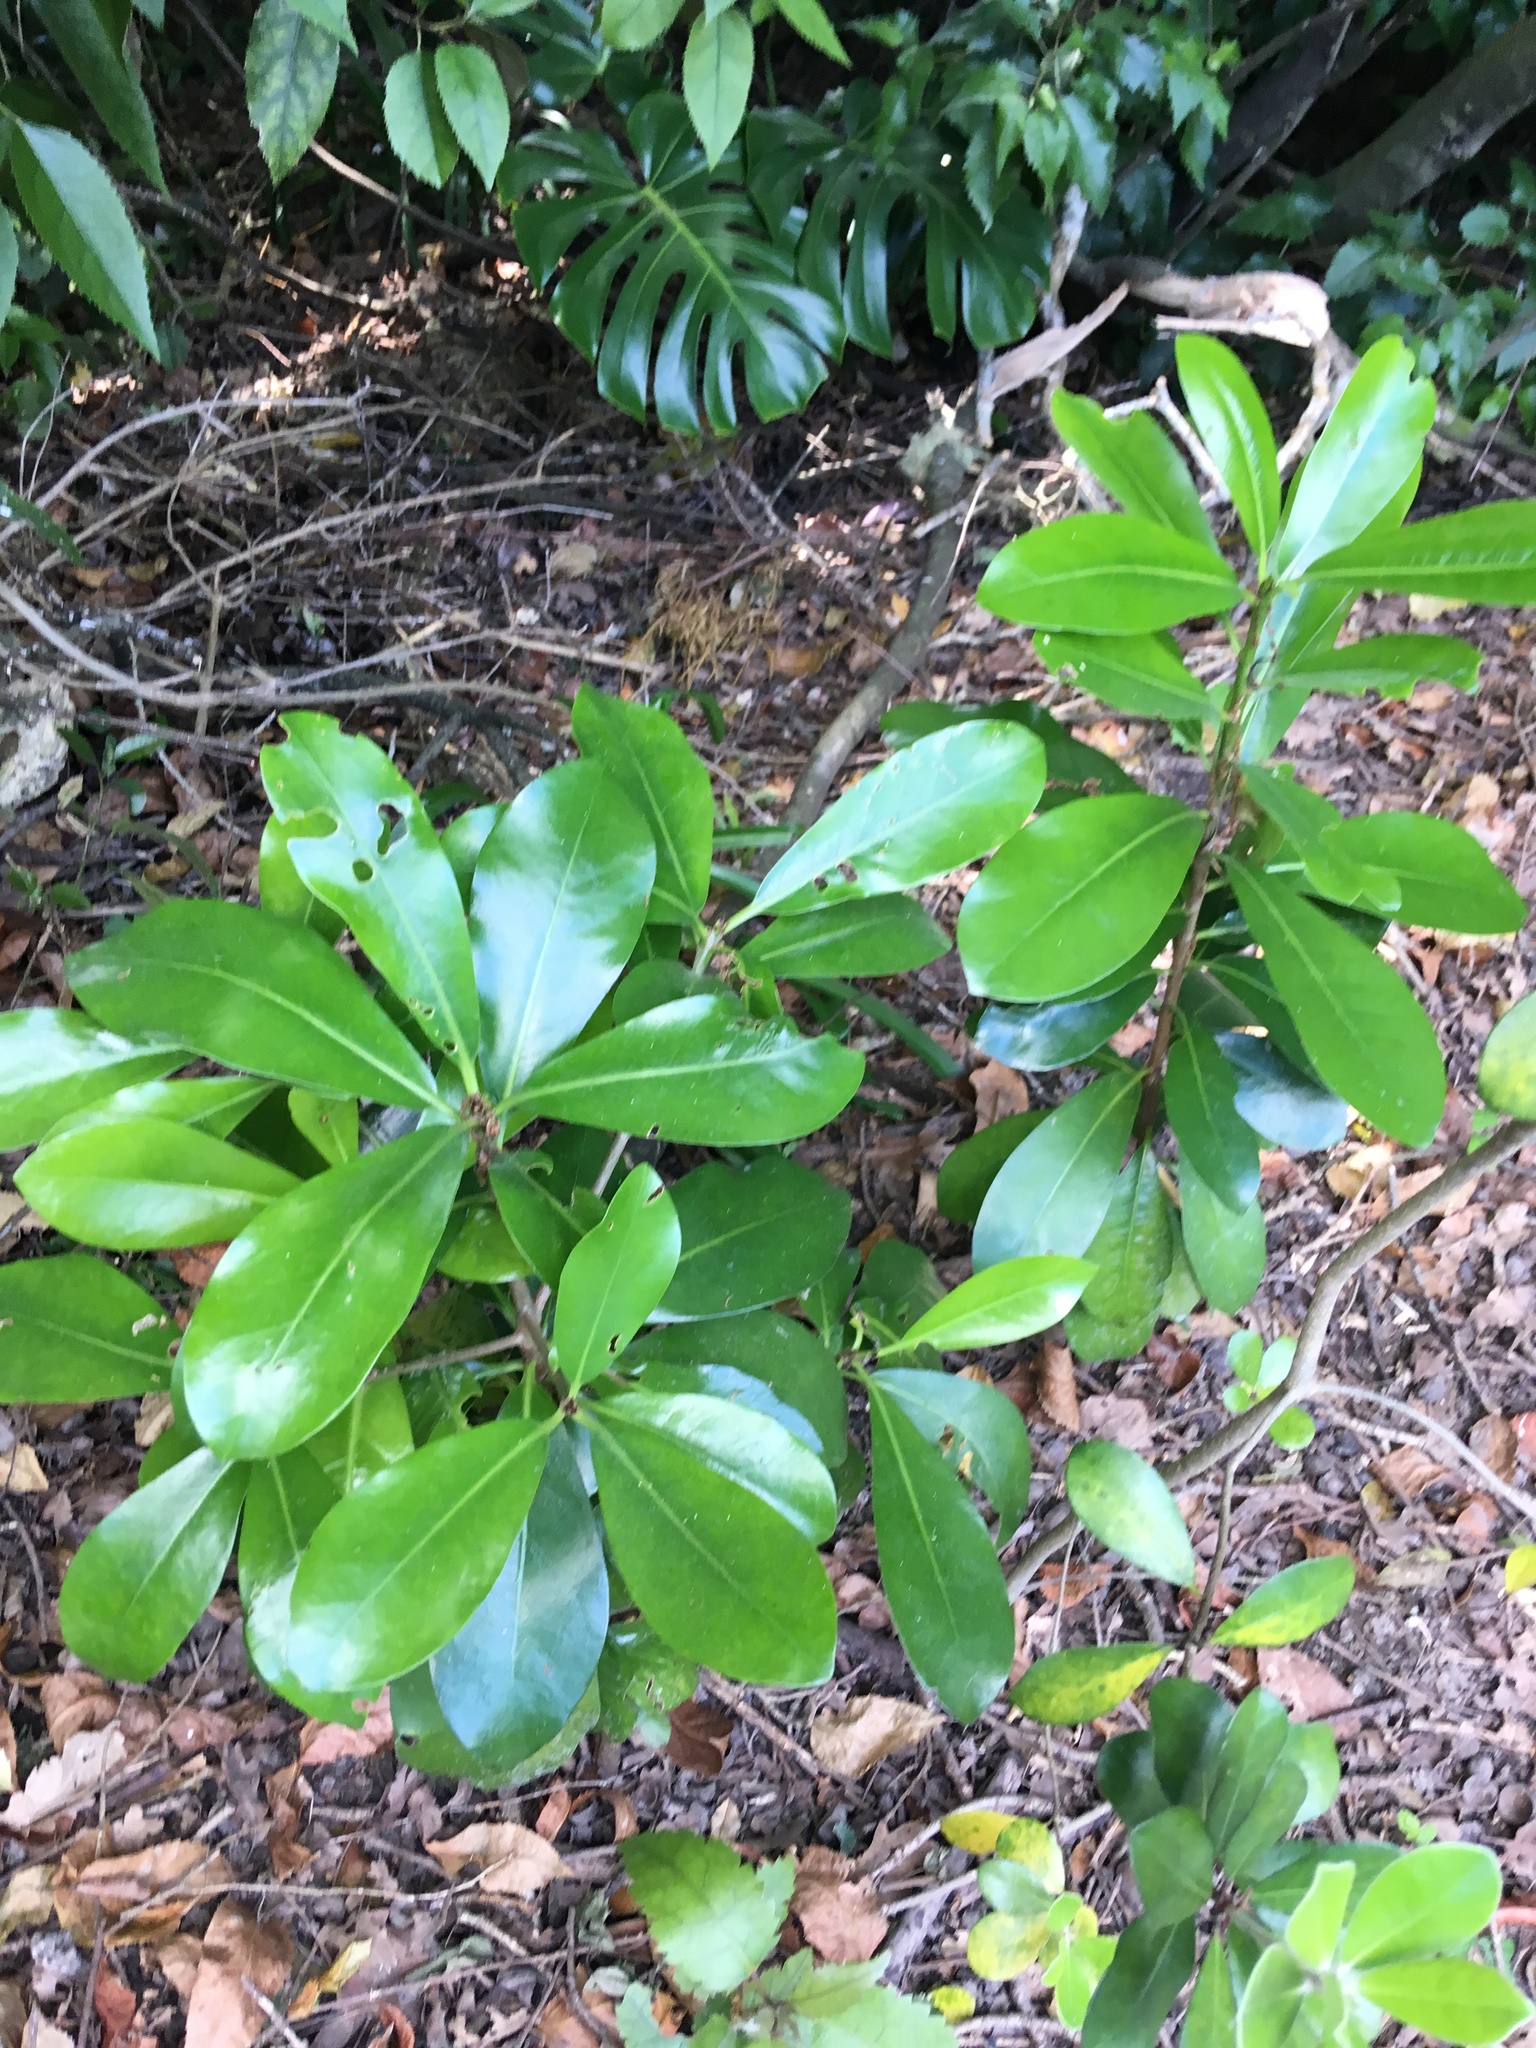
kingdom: Plantae
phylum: Tracheophyta
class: Magnoliopsida
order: Cucurbitales
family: Corynocarpaceae
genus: Corynocarpus
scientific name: Corynocarpus laevigatus
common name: New zealand laurel
